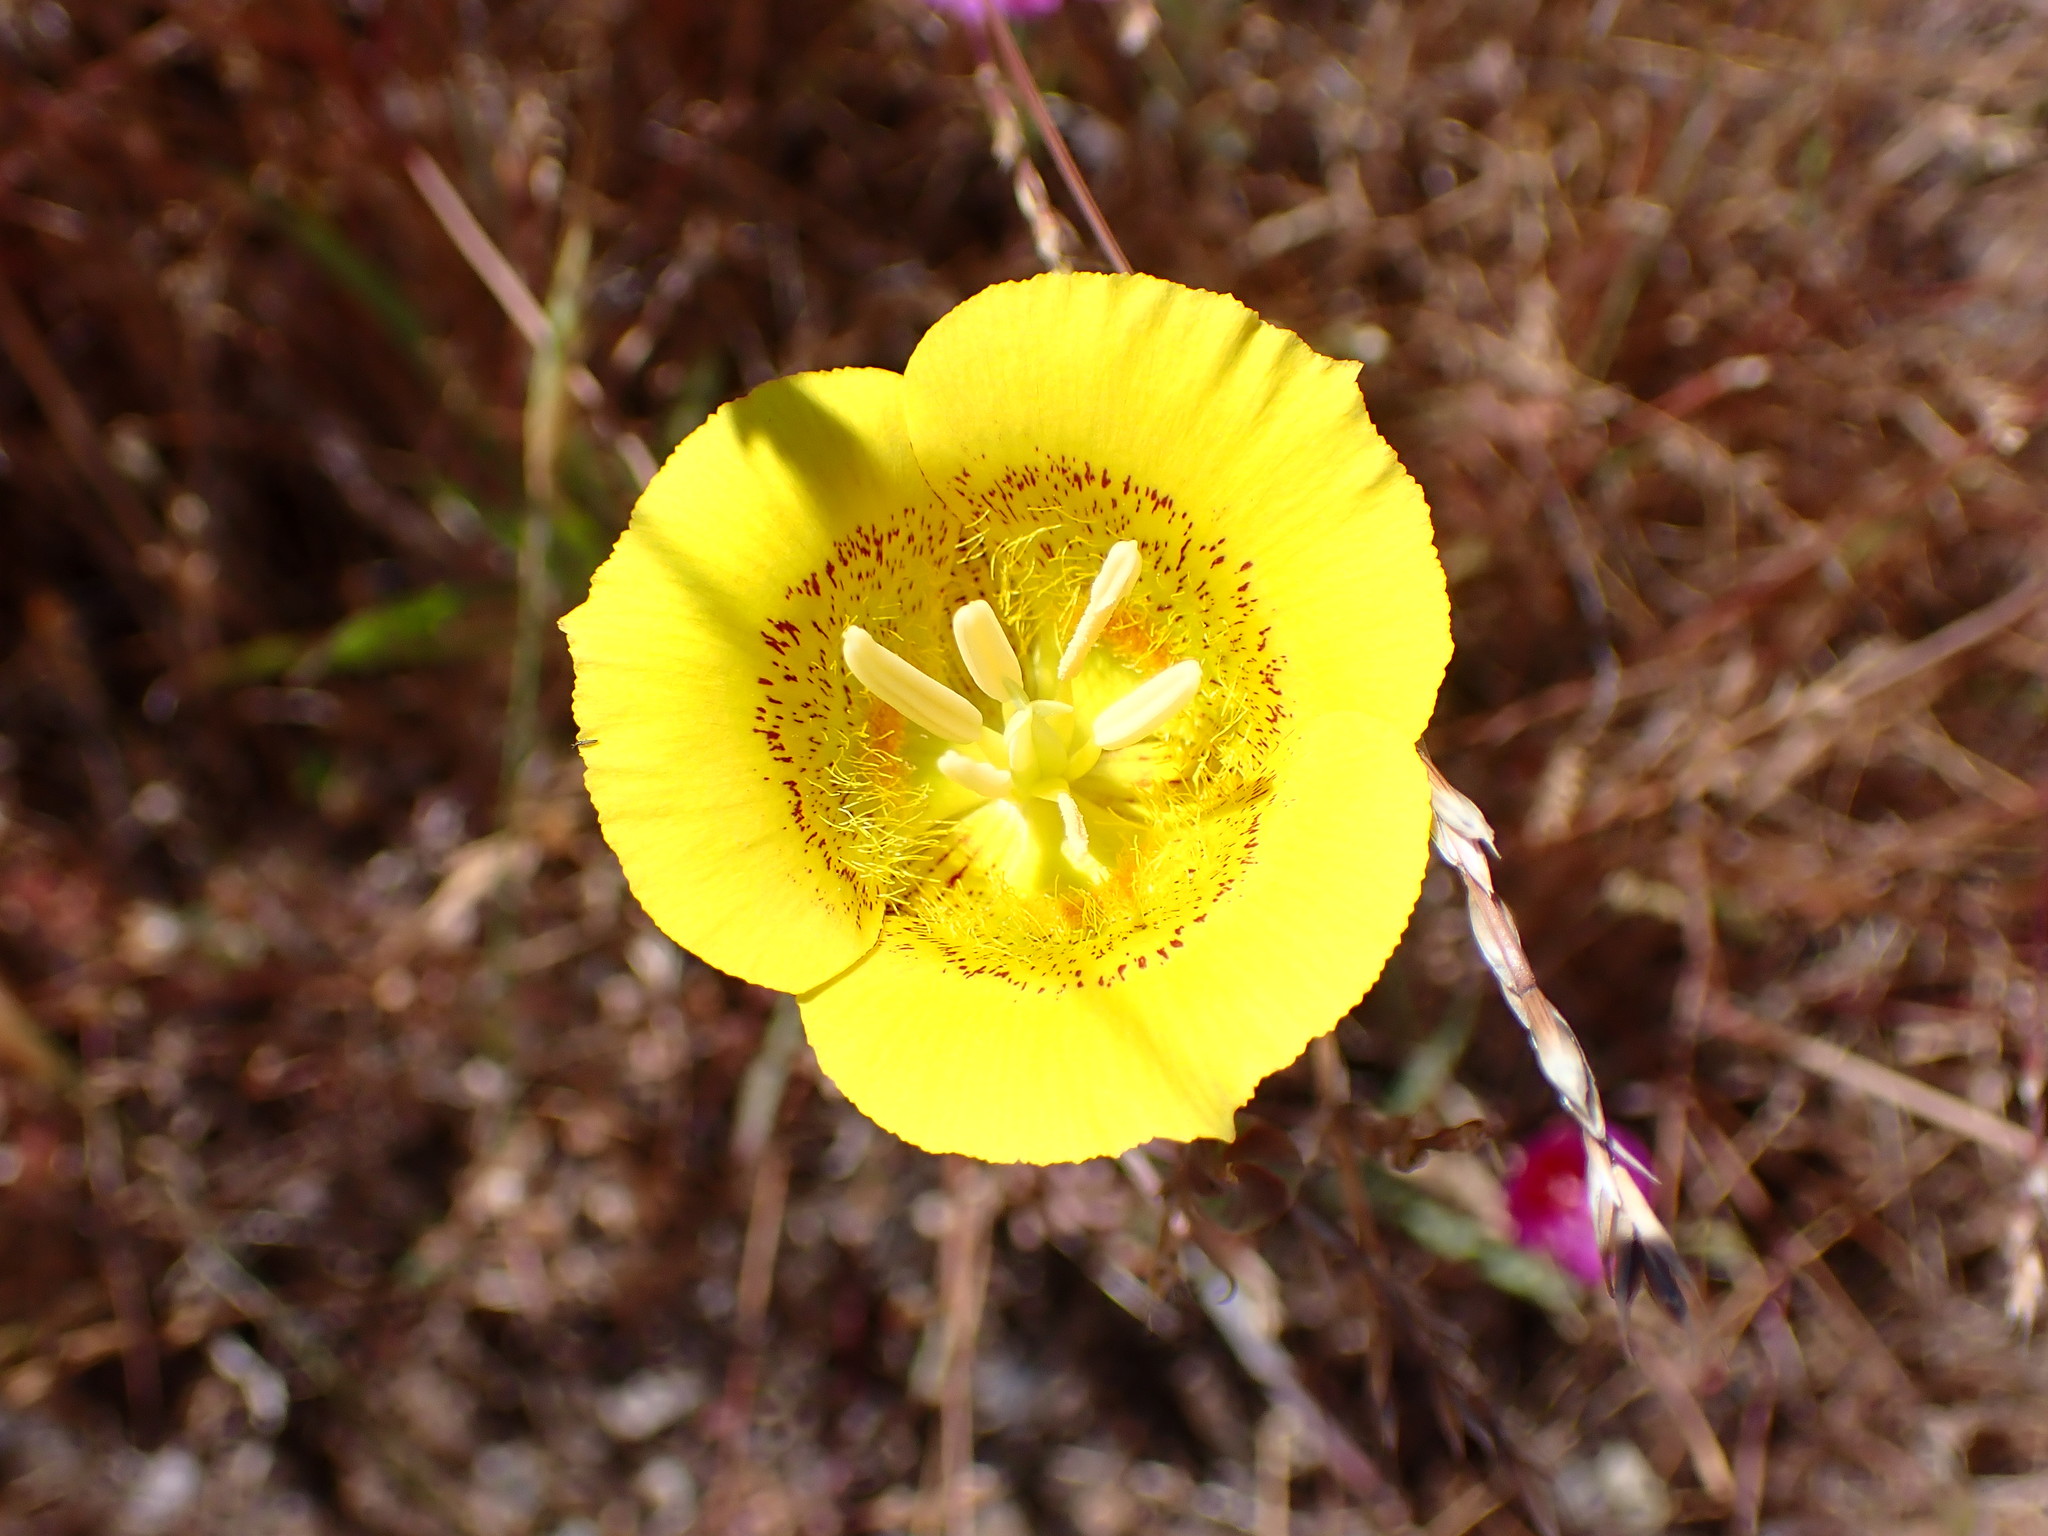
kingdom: Plantae
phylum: Tracheophyta
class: Liliopsida
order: Liliales
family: Liliaceae
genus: Calochortus
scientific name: Calochortus luteus
